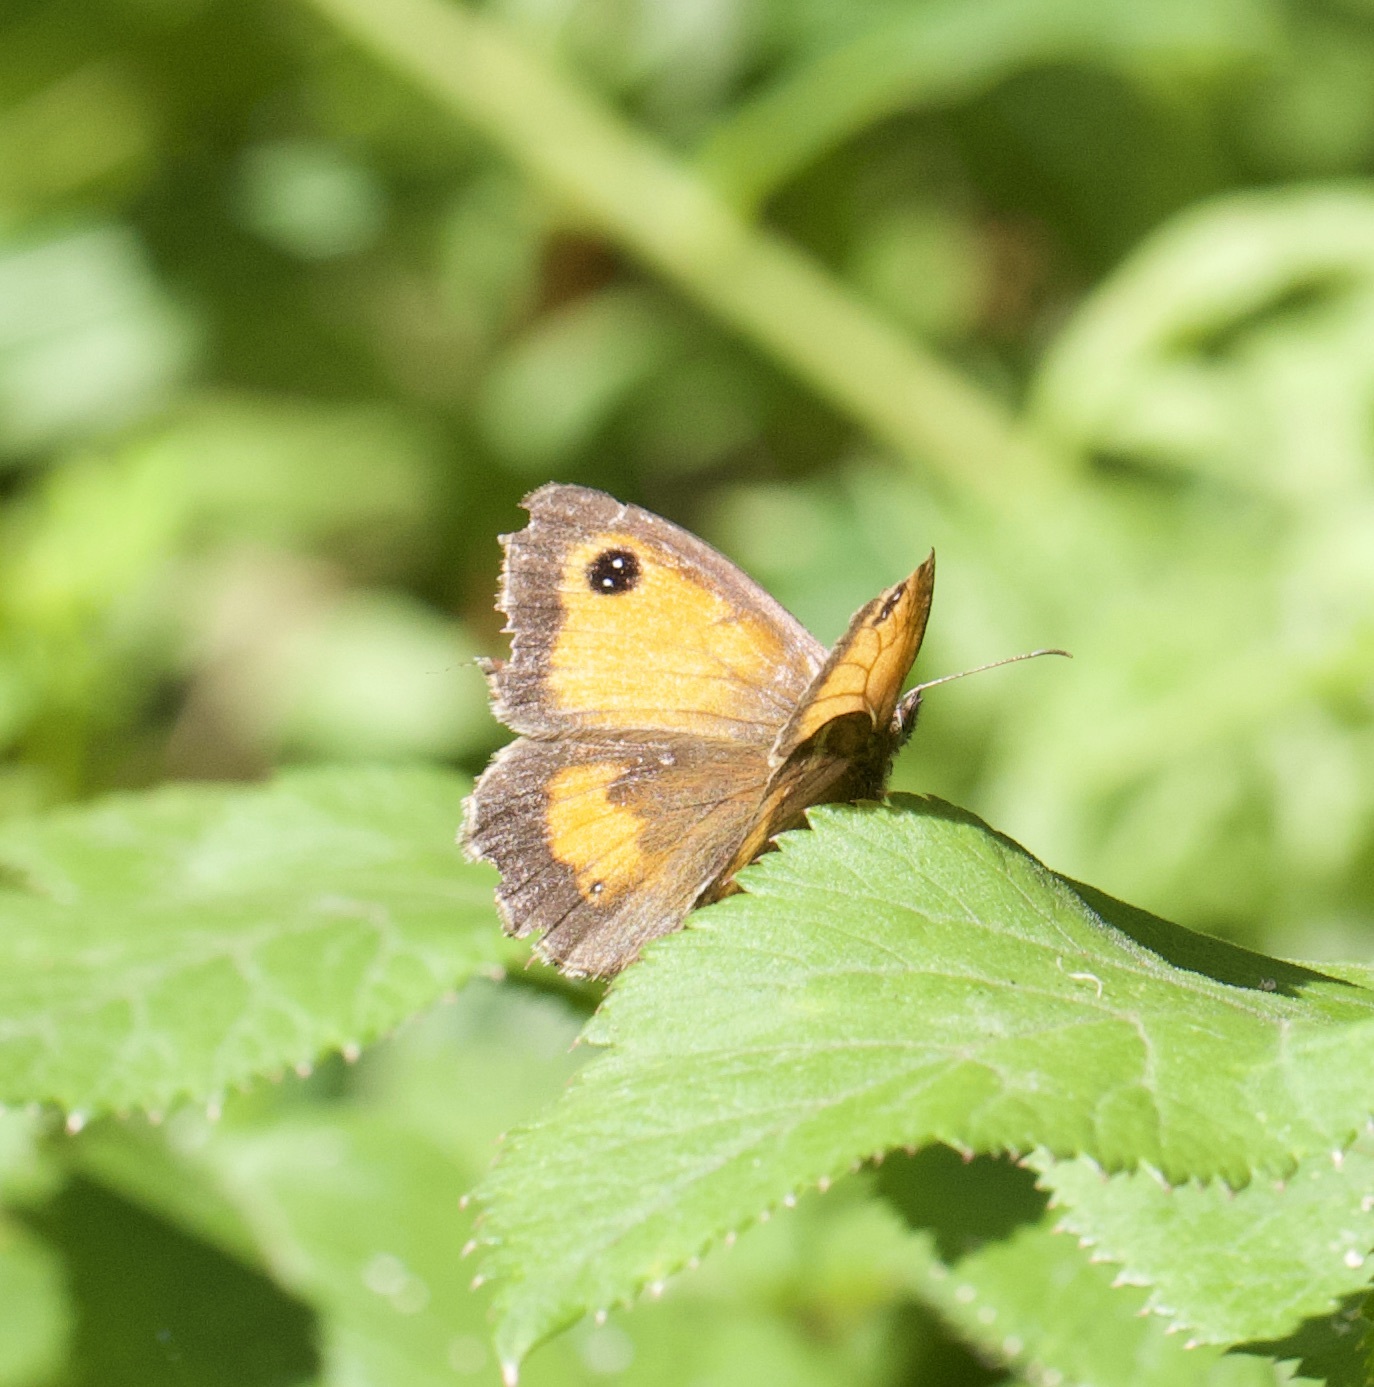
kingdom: Animalia
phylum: Arthropoda
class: Insecta
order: Lepidoptera
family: Nymphalidae
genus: Pyronia
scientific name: Pyronia tithonus
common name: Gatekeeper
